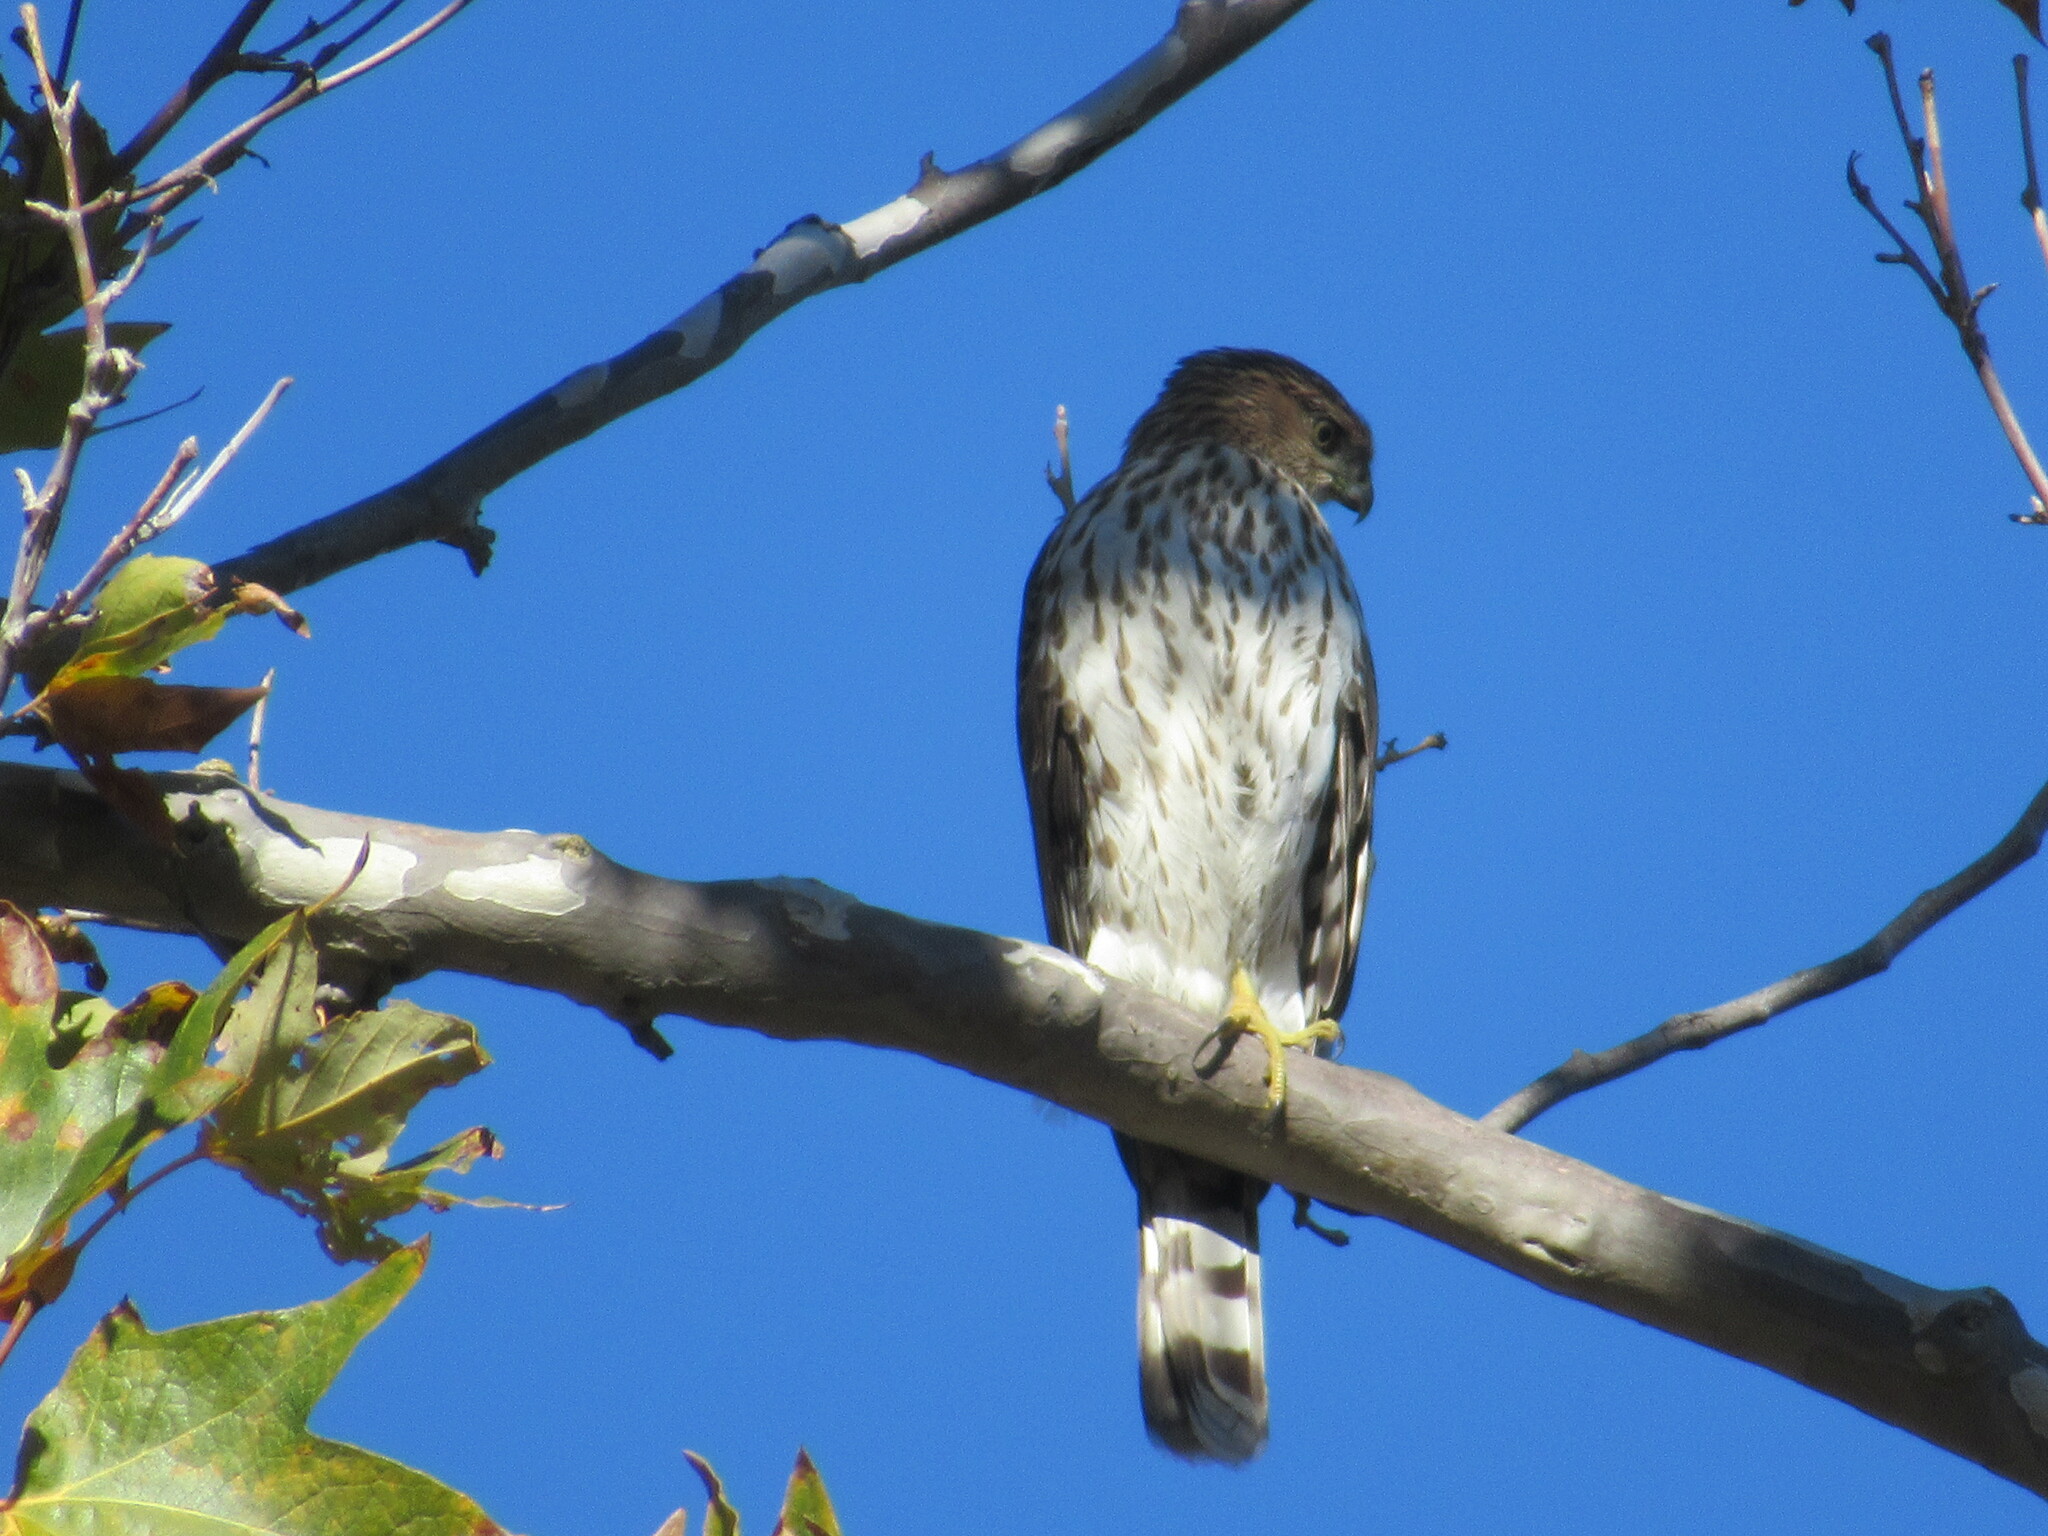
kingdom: Animalia
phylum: Chordata
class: Aves
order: Accipitriformes
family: Accipitridae
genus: Accipiter
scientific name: Accipiter cooperii
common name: Cooper's hawk
